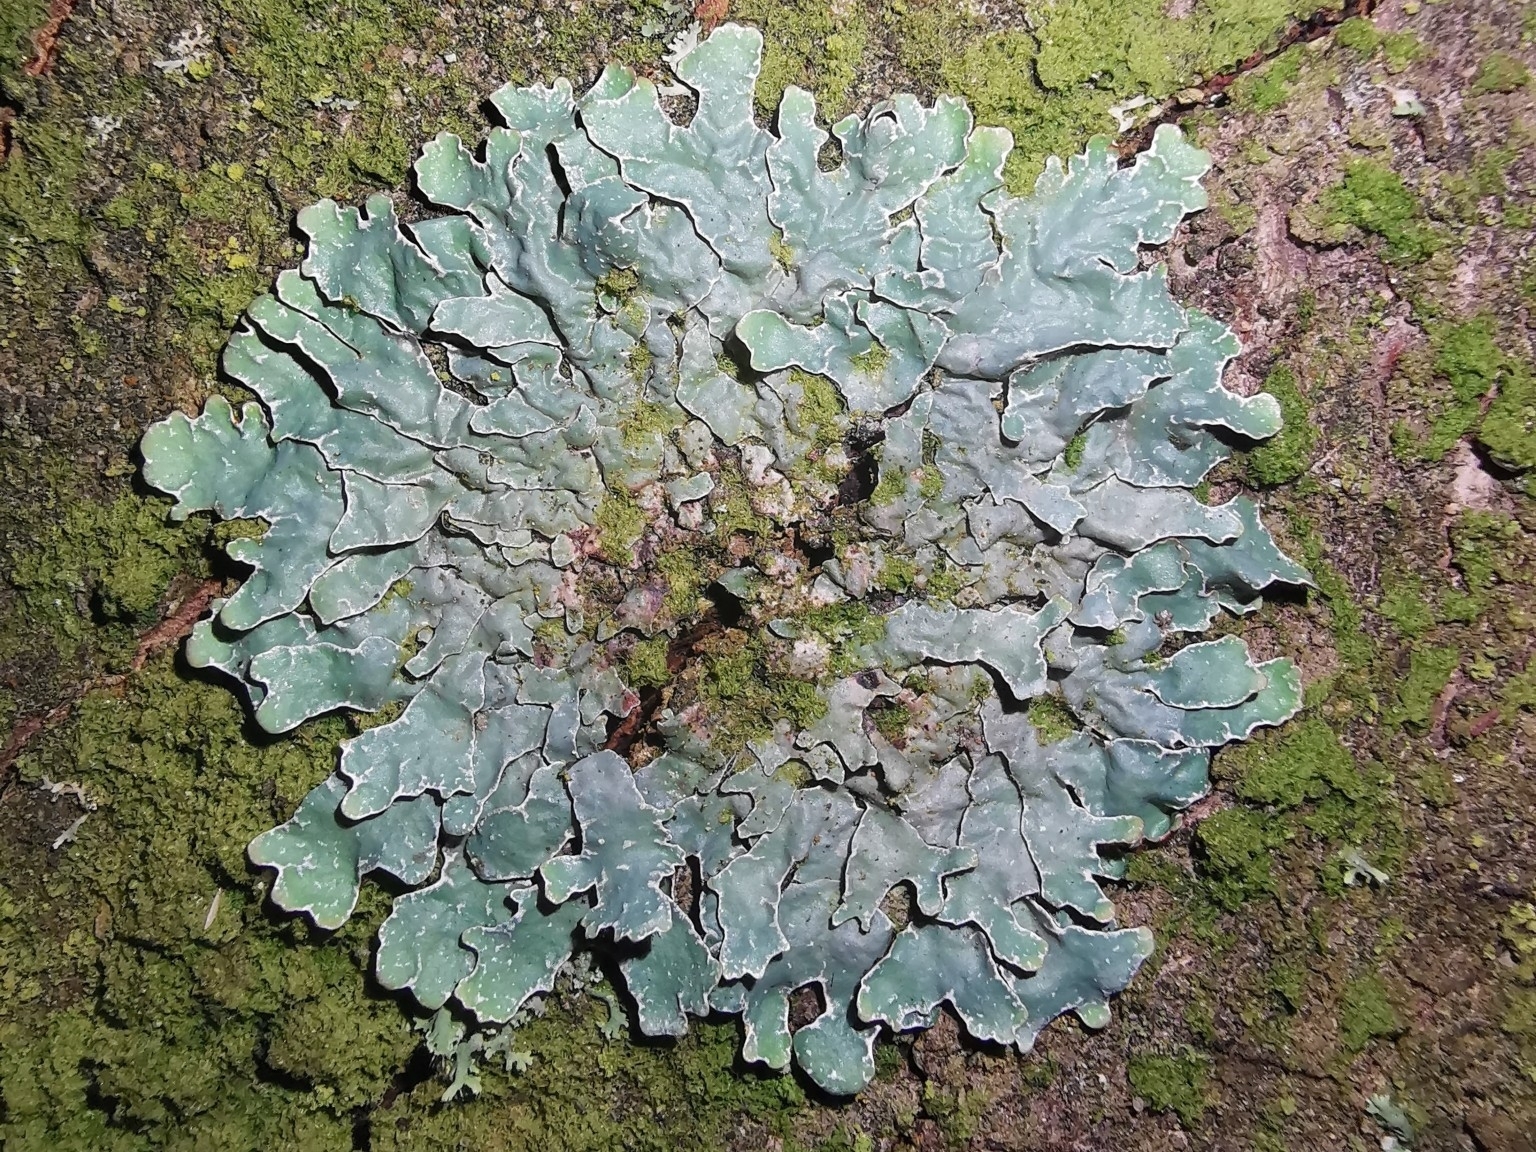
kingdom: Fungi
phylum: Ascomycota
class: Lecanoromycetes
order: Lecanorales
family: Parmeliaceae
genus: Parmelia
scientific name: Parmelia sulcata
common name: Netted shield lichen
